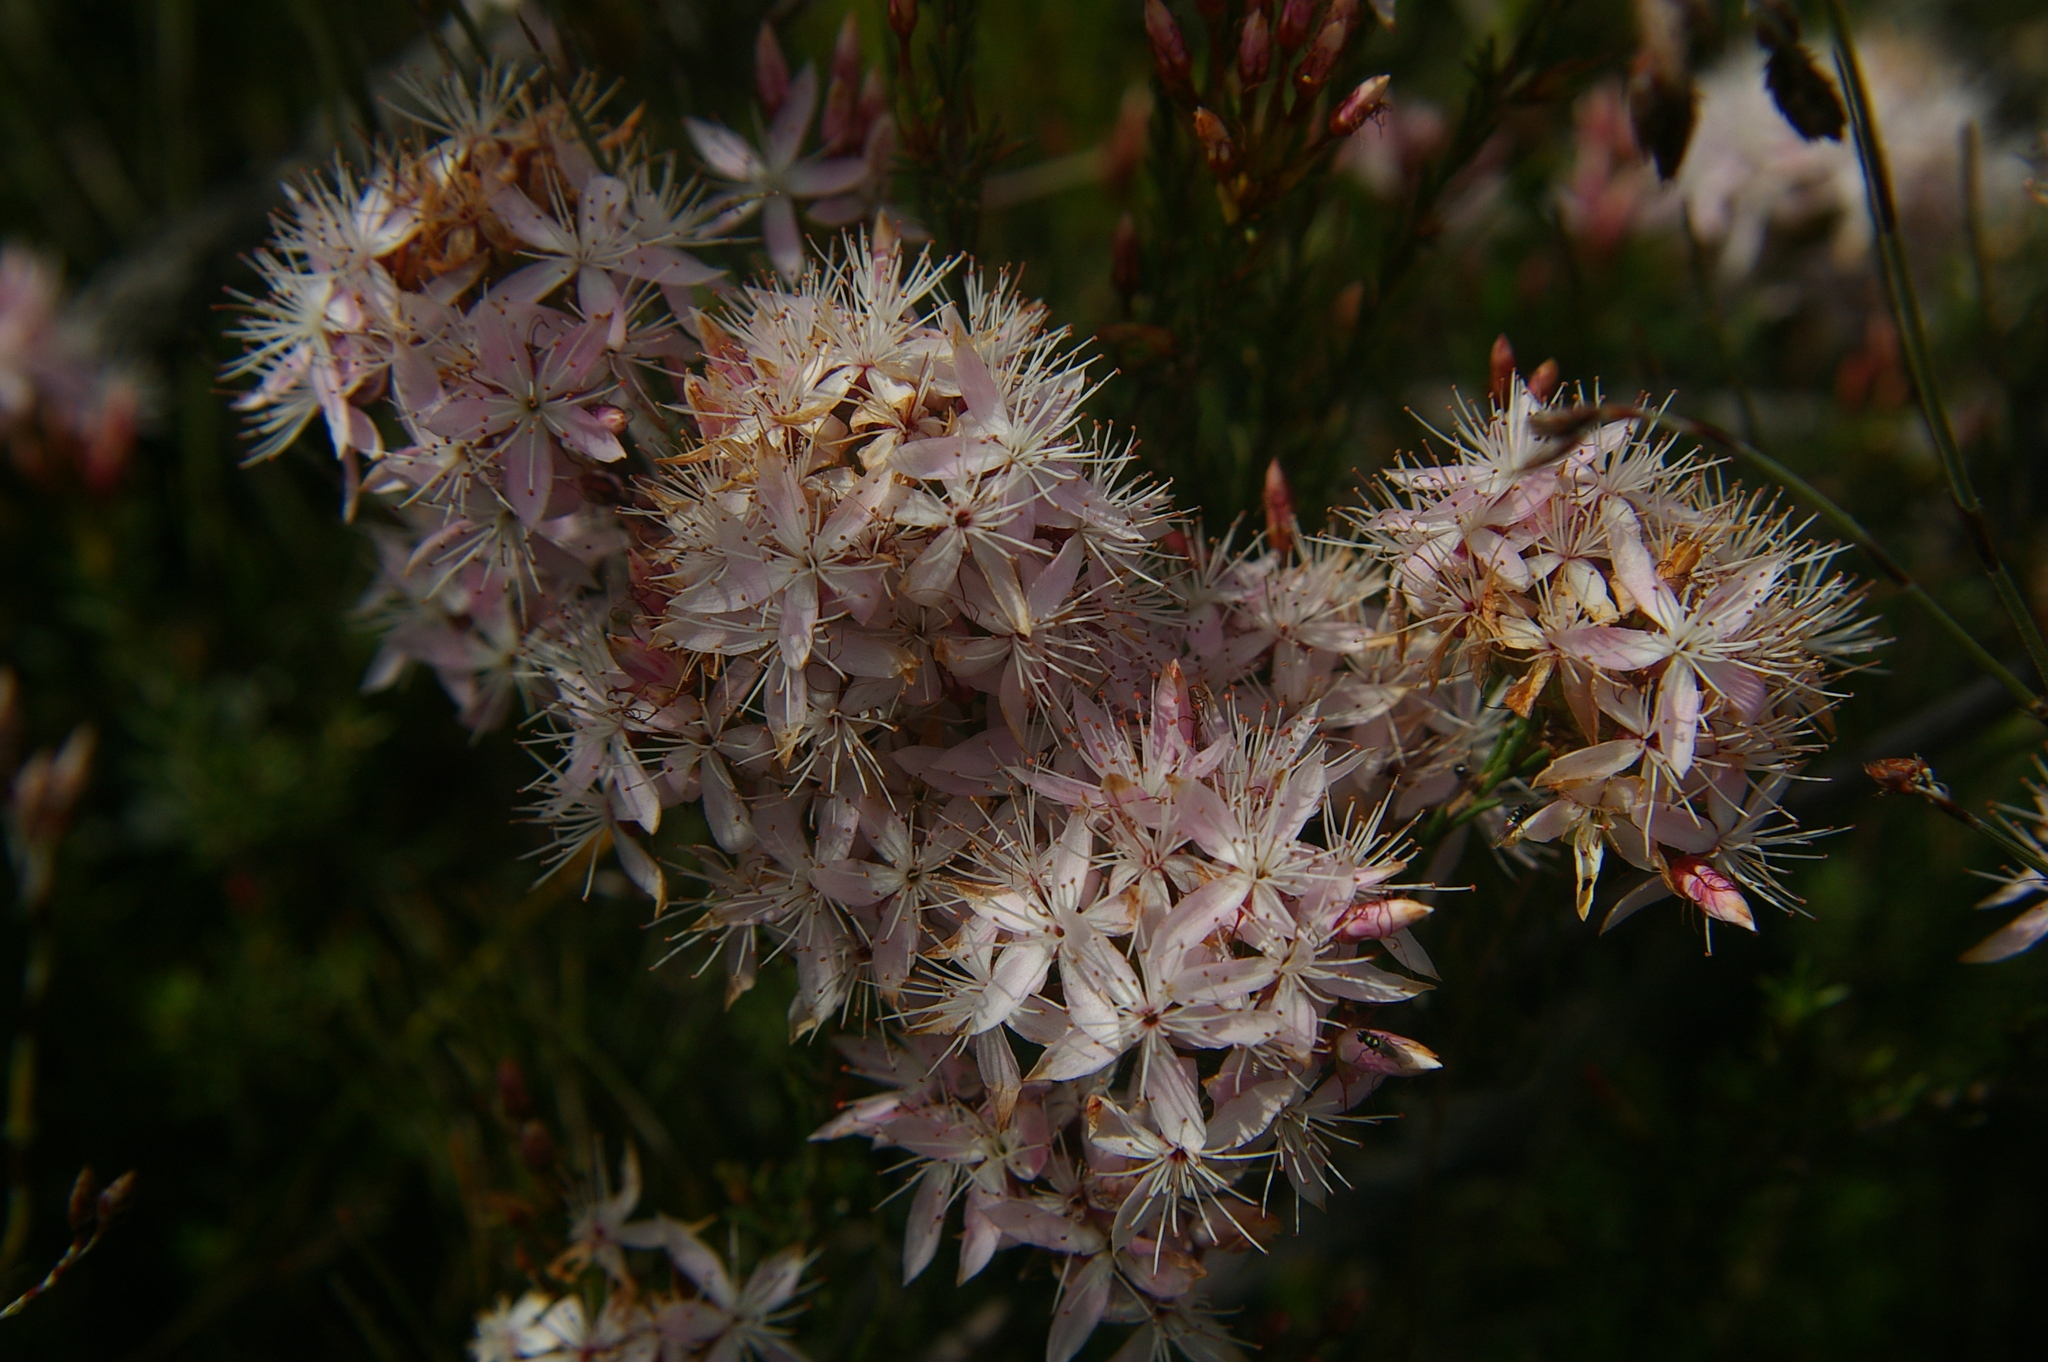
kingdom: Plantae
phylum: Tracheophyta
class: Magnoliopsida
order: Myrtales
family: Myrtaceae
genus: Calytrix
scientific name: Calytrix tetragona
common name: Common fringe myrtle
